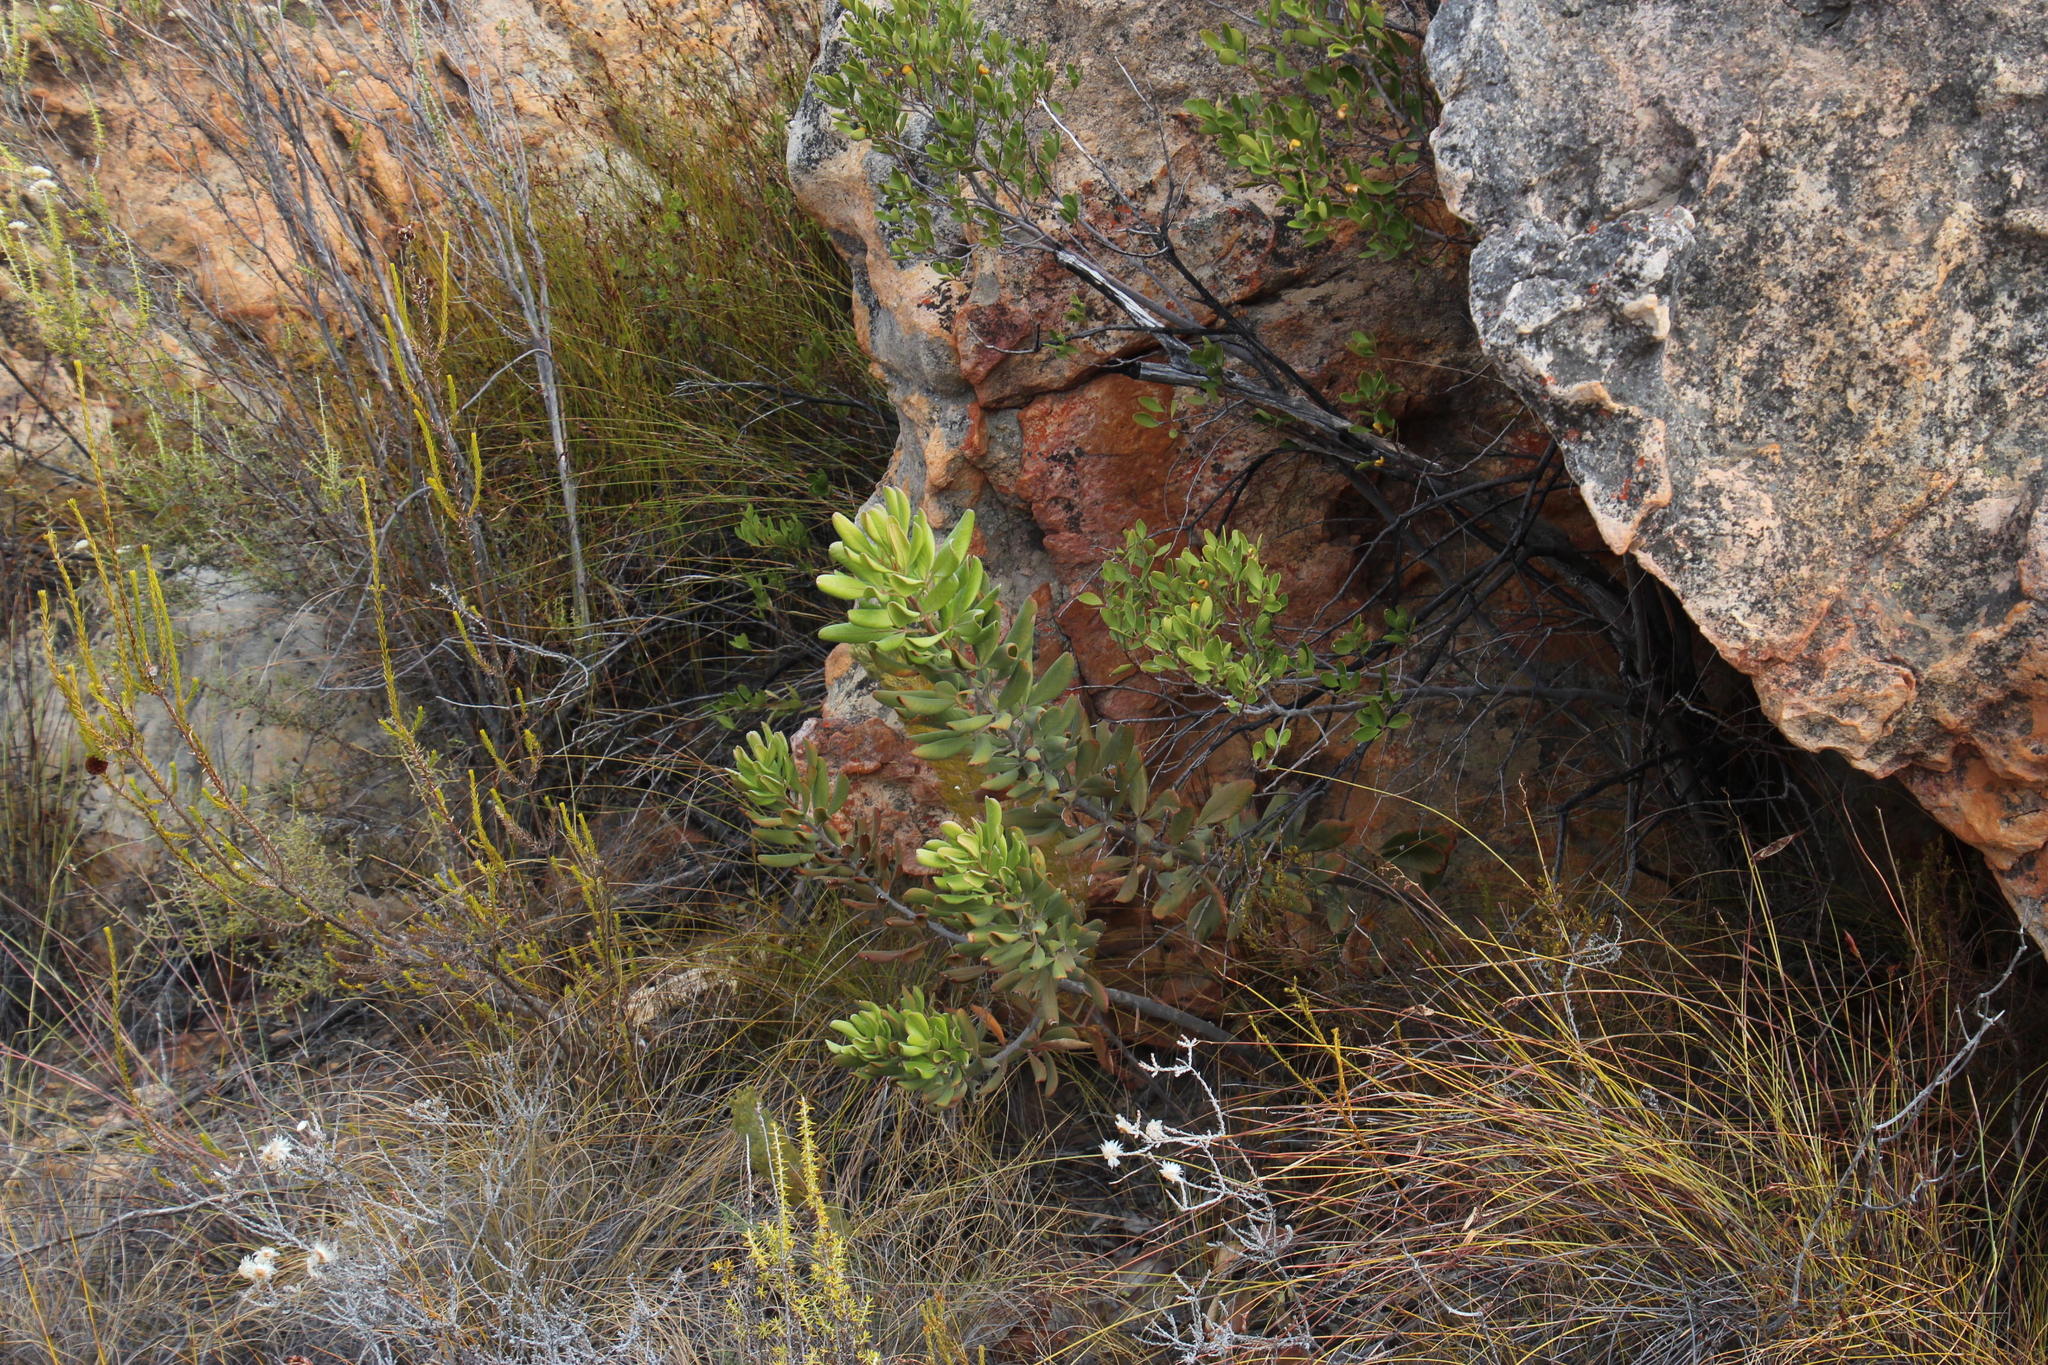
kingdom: Plantae
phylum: Tracheophyta
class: Magnoliopsida
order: Sapindales
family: Anacardiaceae
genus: Searsia
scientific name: Searsia scytophylla
